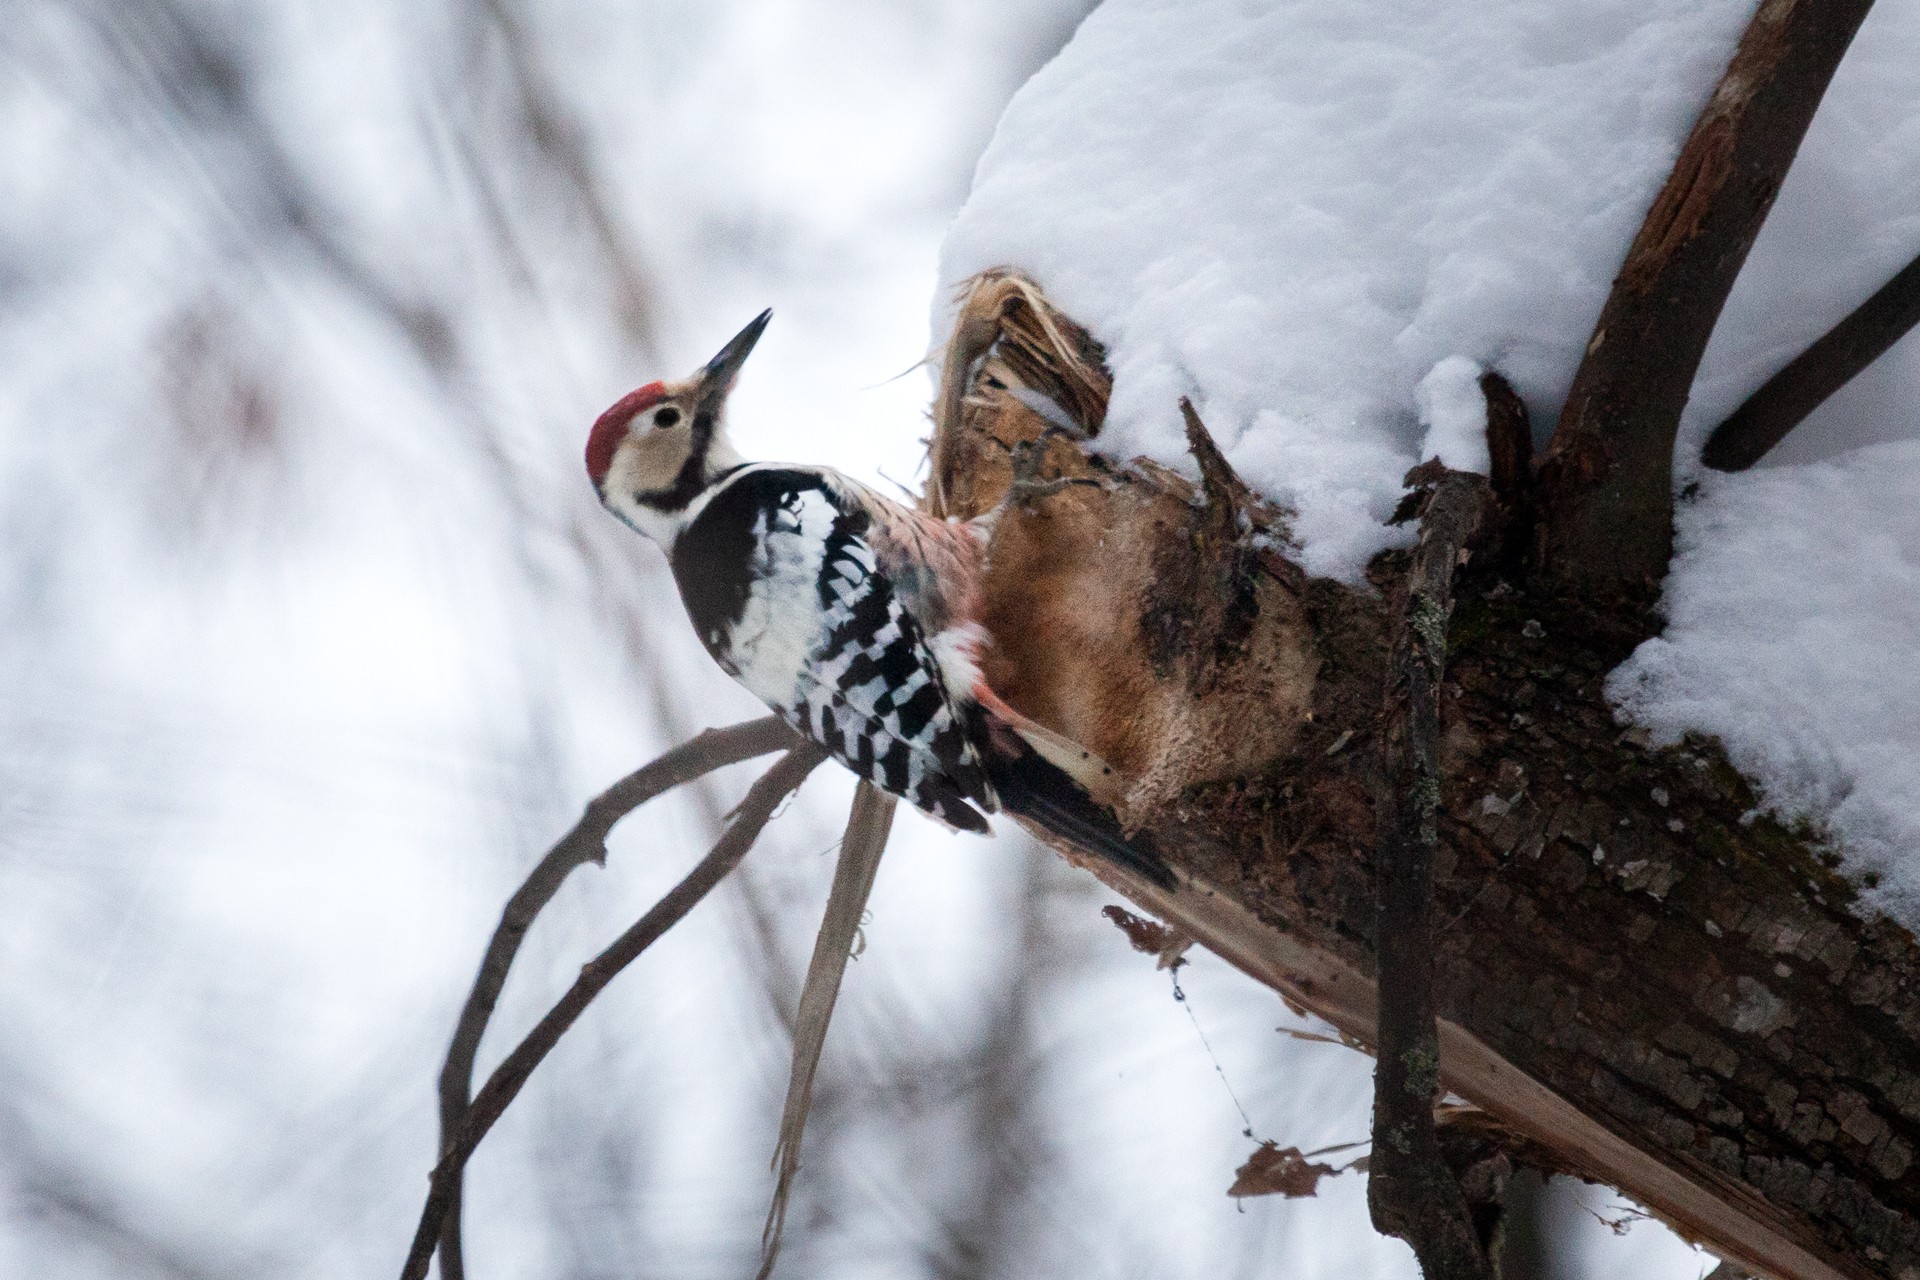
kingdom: Animalia
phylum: Chordata
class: Aves
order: Piciformes
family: Picidae
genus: Dendrocopos
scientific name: Dendrocopos leucotos
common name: White-backed woodpecker
